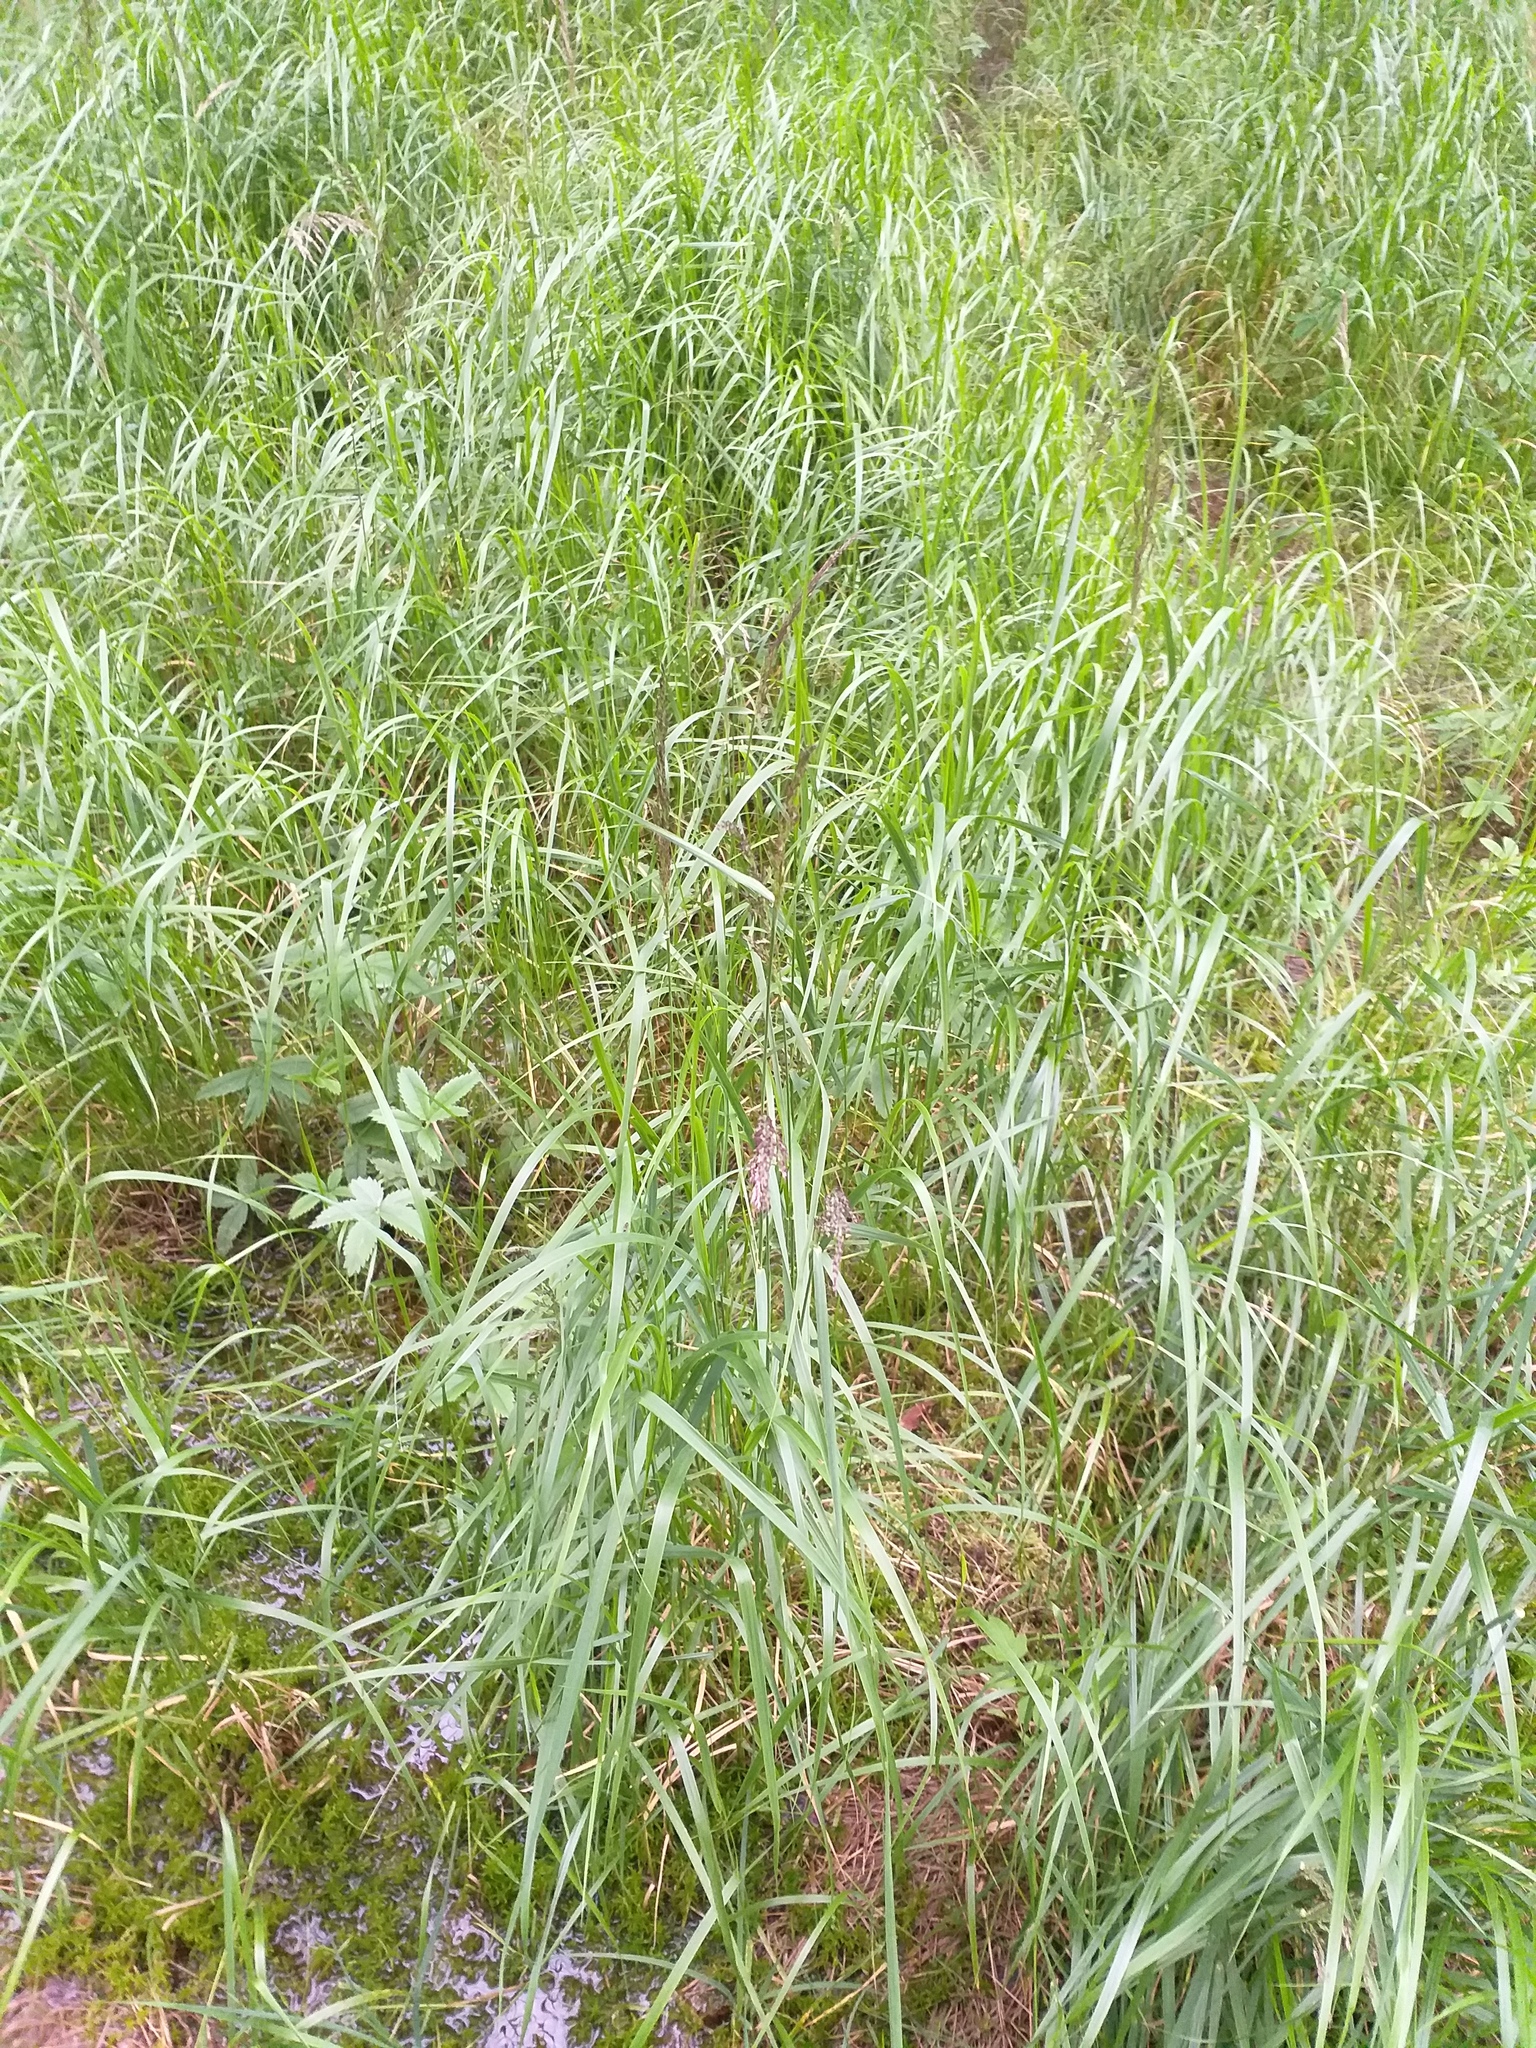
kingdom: Plantae
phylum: Tracheophyta
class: Liliopsida
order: Poales
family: Poaceae
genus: Calamagrostis
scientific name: Calamagrostis canescens
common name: Purple small-reed
